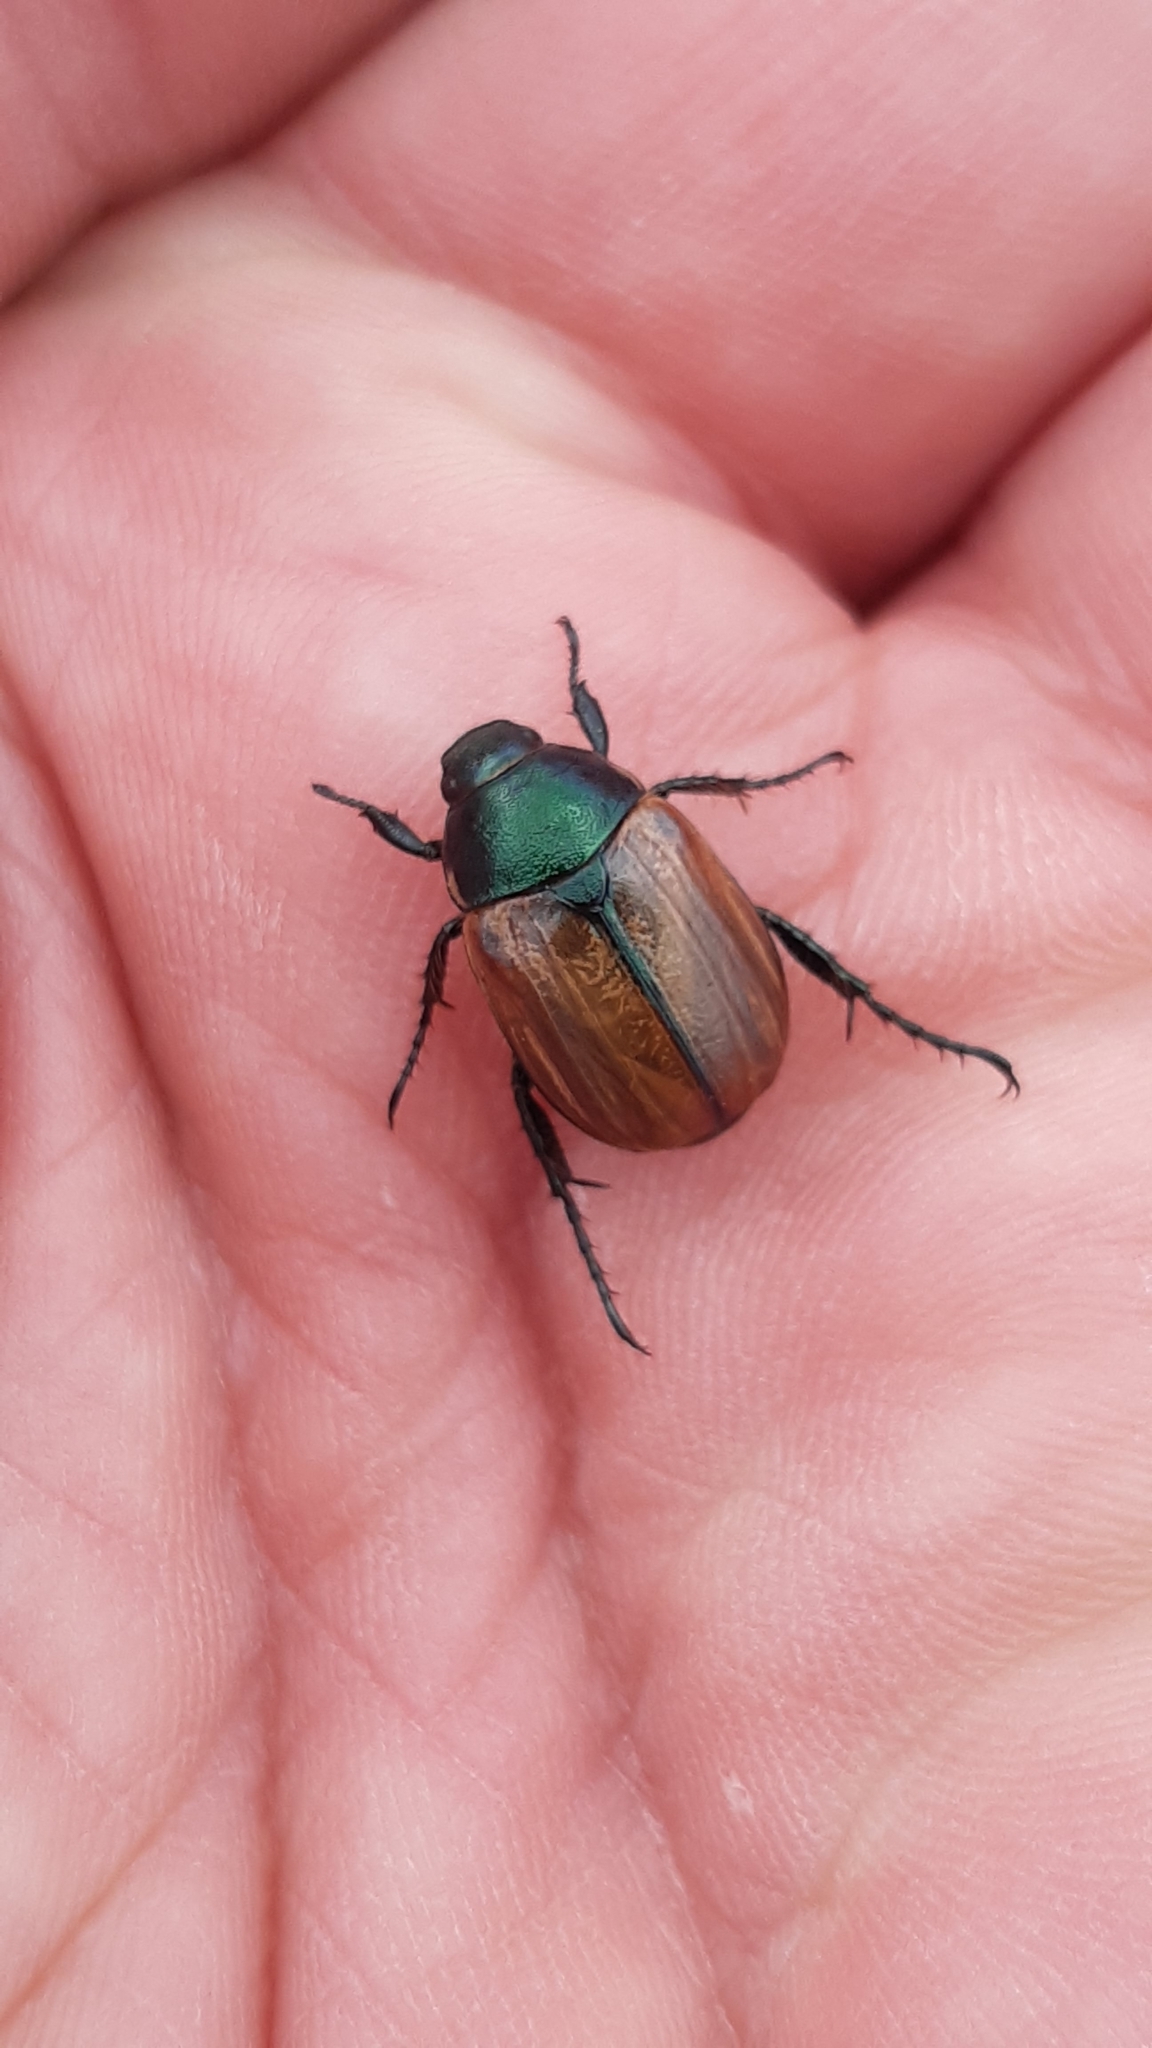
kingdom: Animalia
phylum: Arthropoda
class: Insecta
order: Coleoptera
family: Scarabaeidae
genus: Anomala
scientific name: Anomala dubia
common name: Dune chafer
